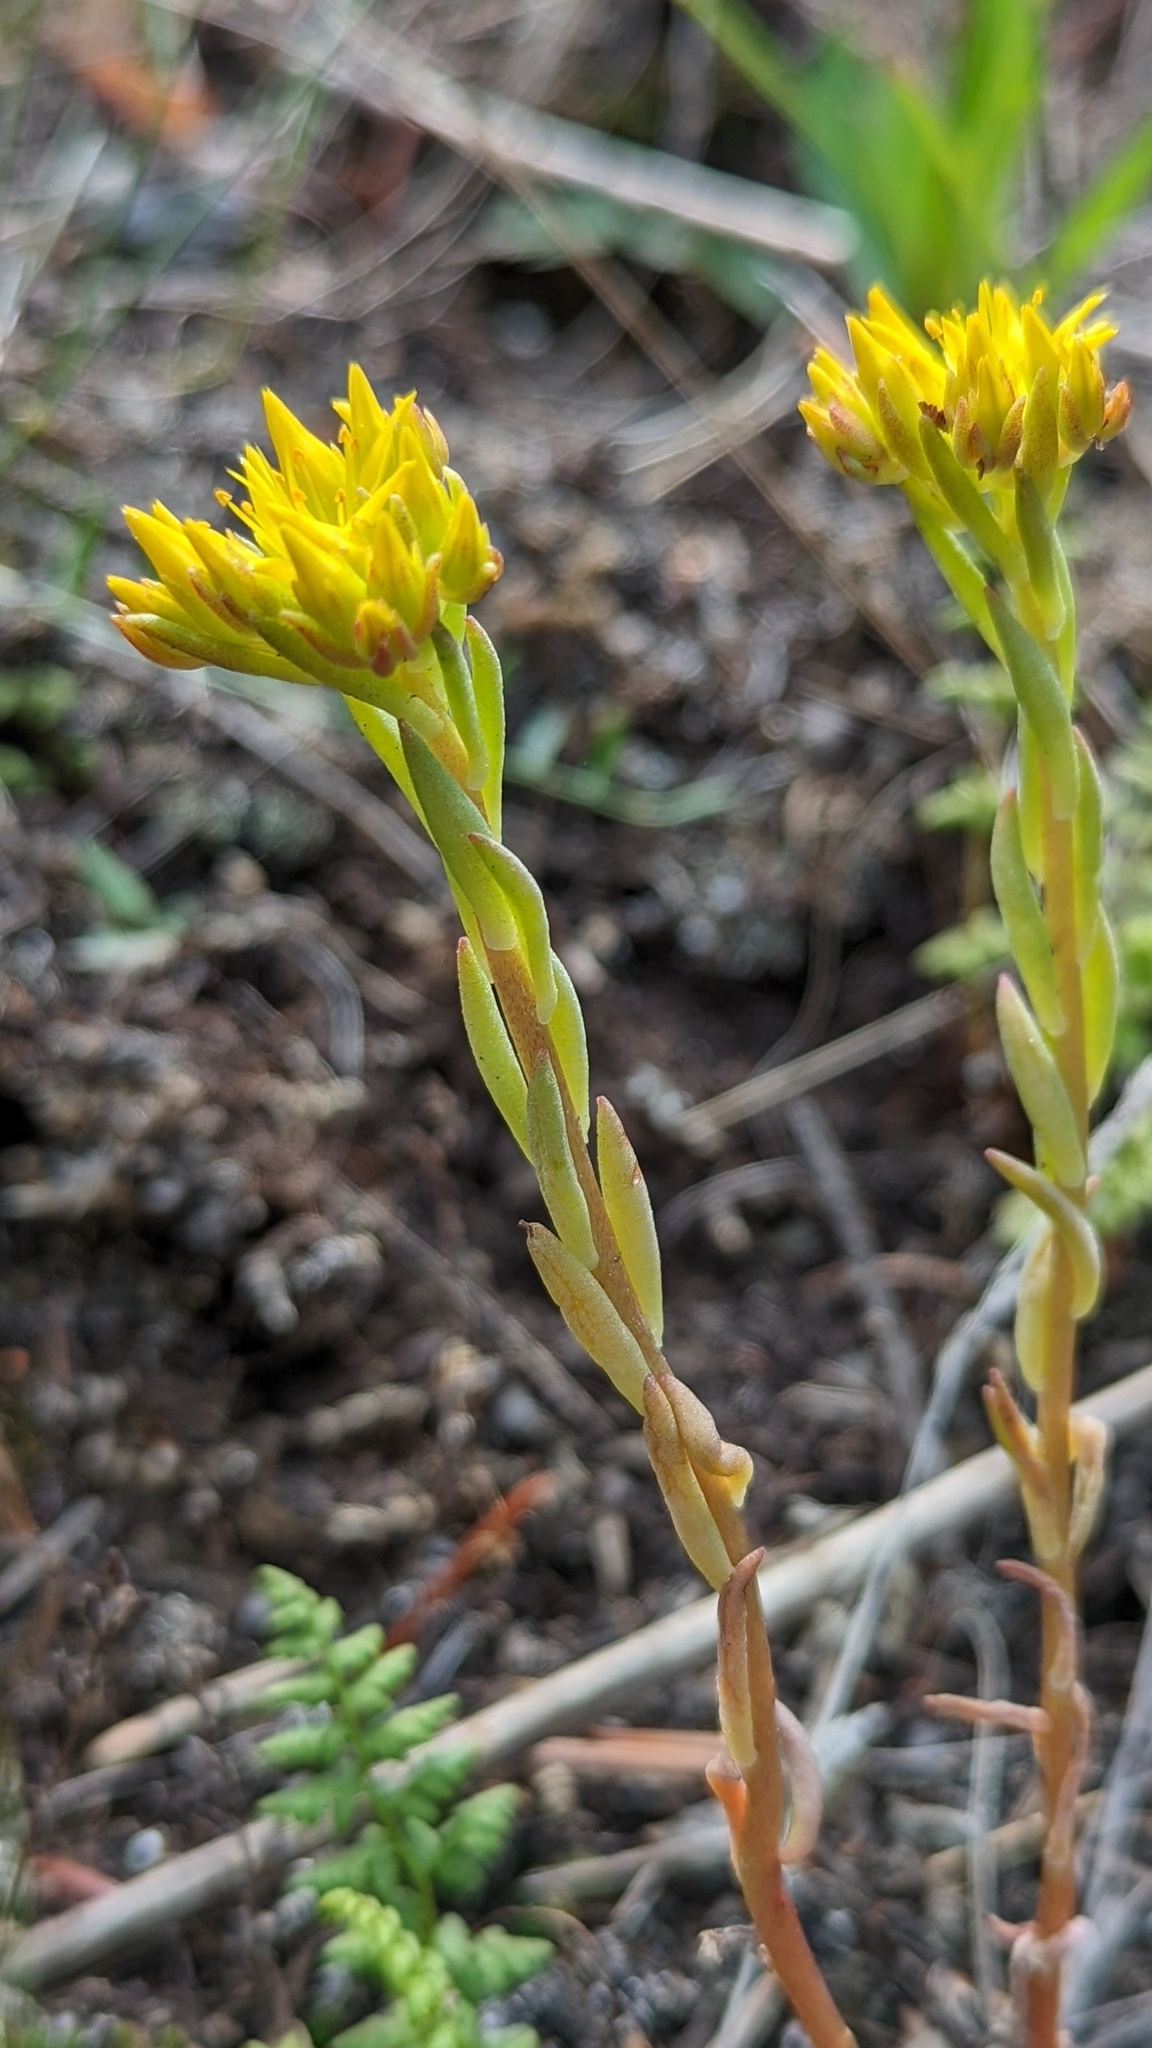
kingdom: Plantae
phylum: Tracheophyta
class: Magnoliopsida
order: Saxifragales
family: Crassulaceae
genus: Sedum
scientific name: Sedum lanceolatum
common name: Common stonecrop
